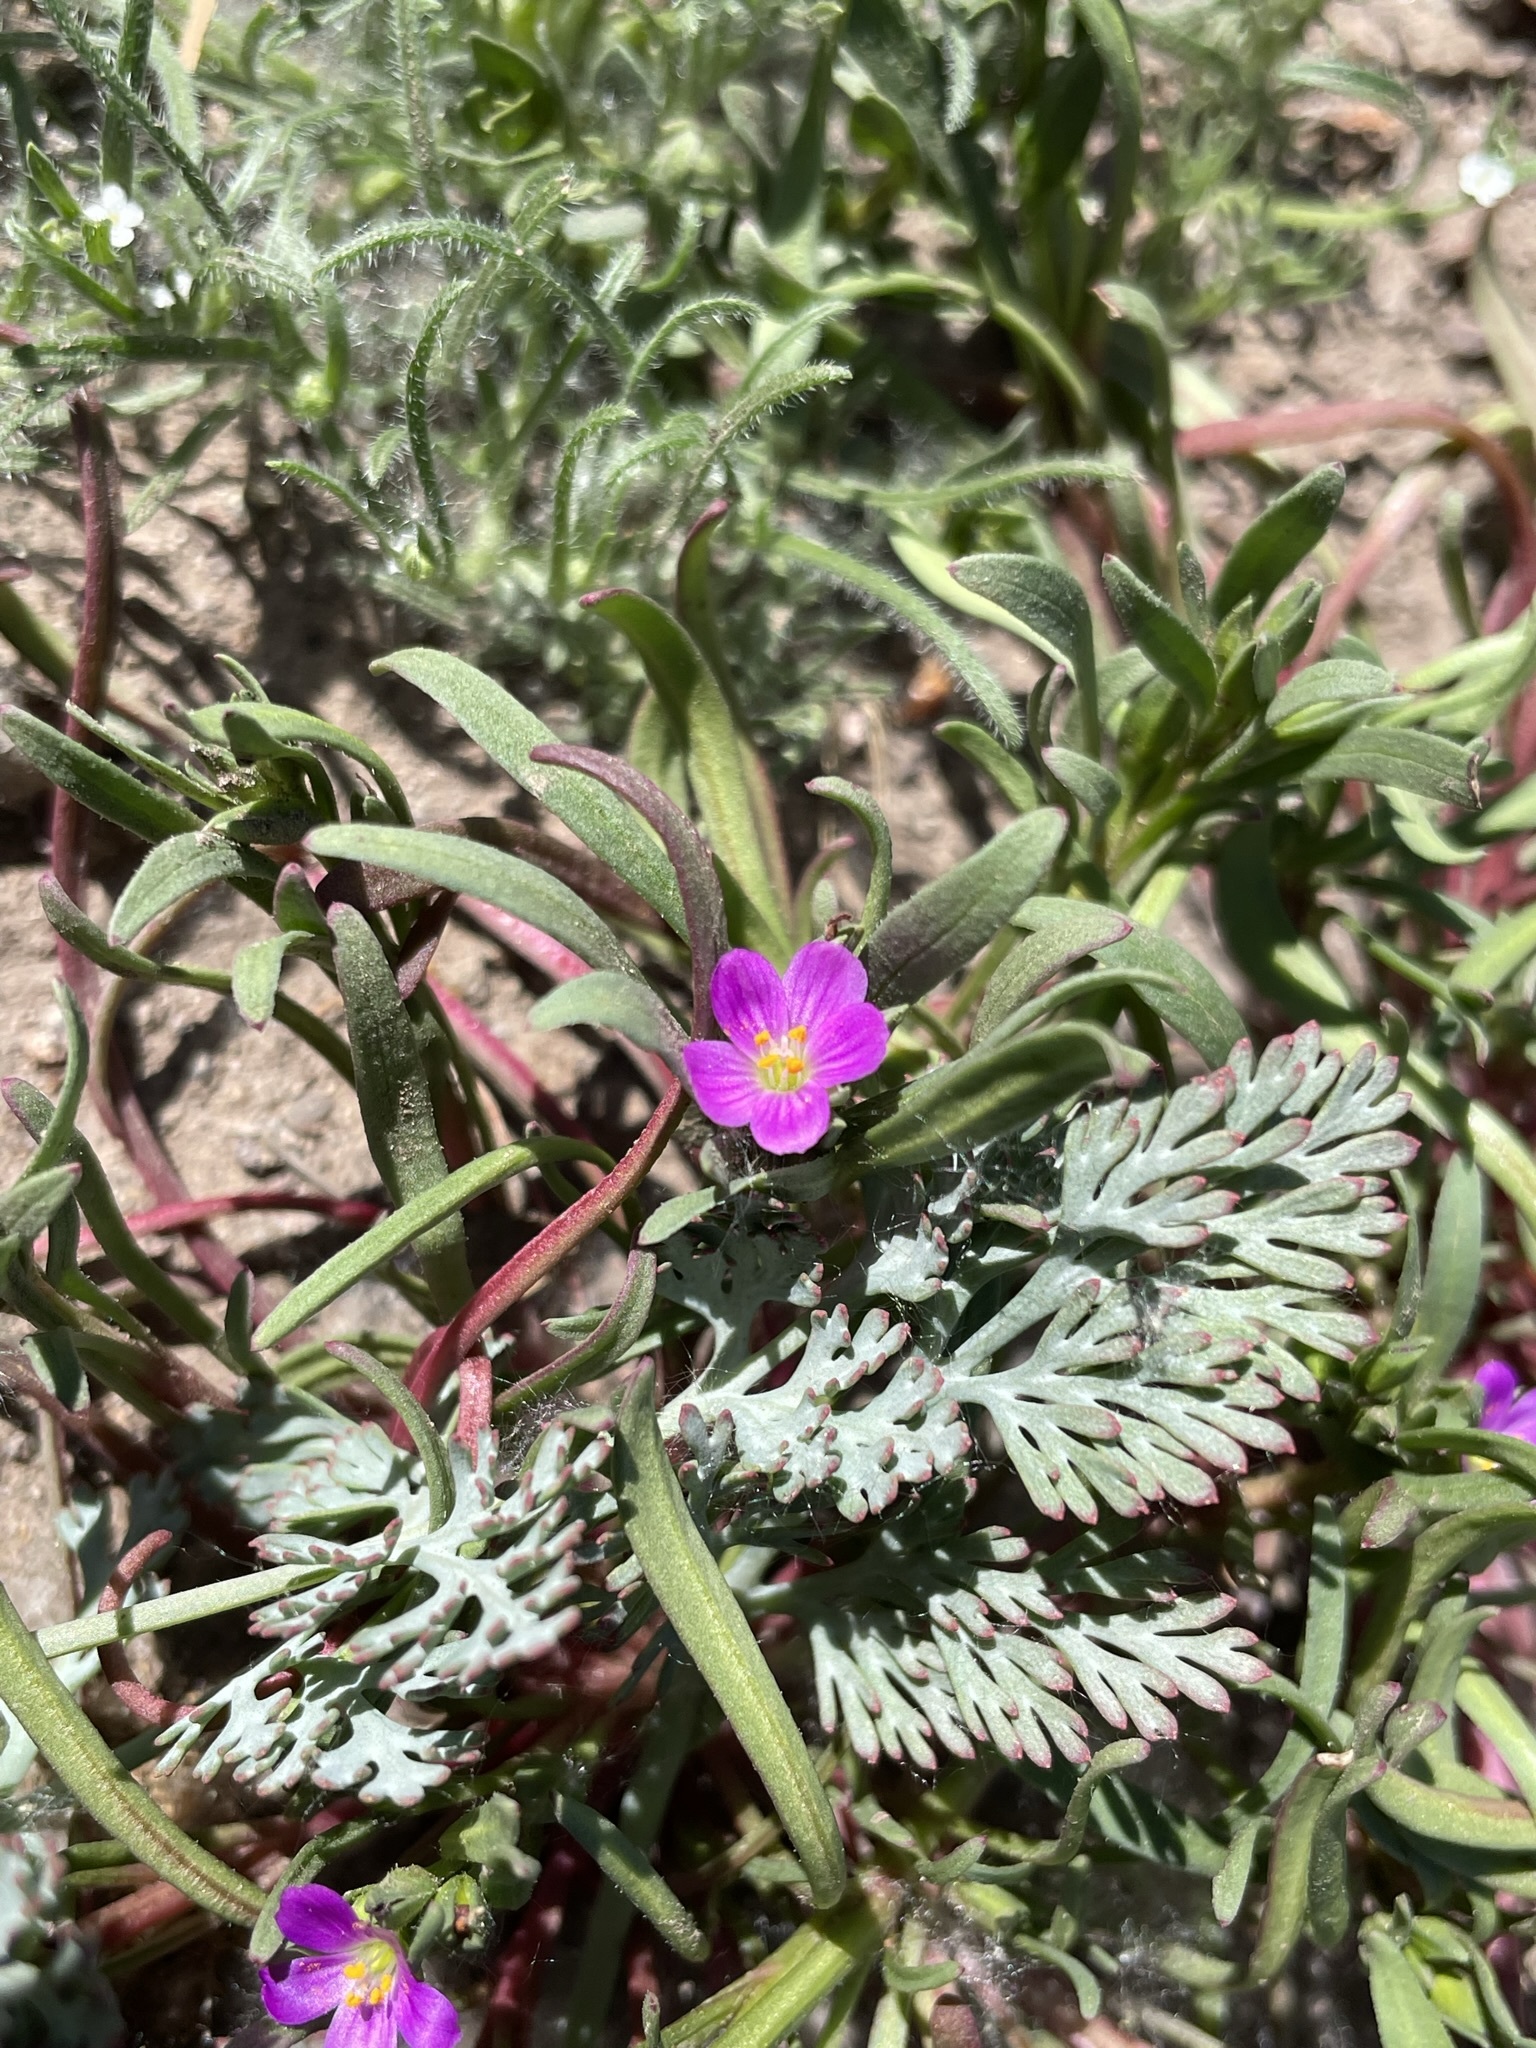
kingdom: Plantae
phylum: Tracheophyta
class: Magnoliopsida
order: Caryophyllales
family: Montiaceae
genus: Calandrinia
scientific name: Calandrinia menziesii
